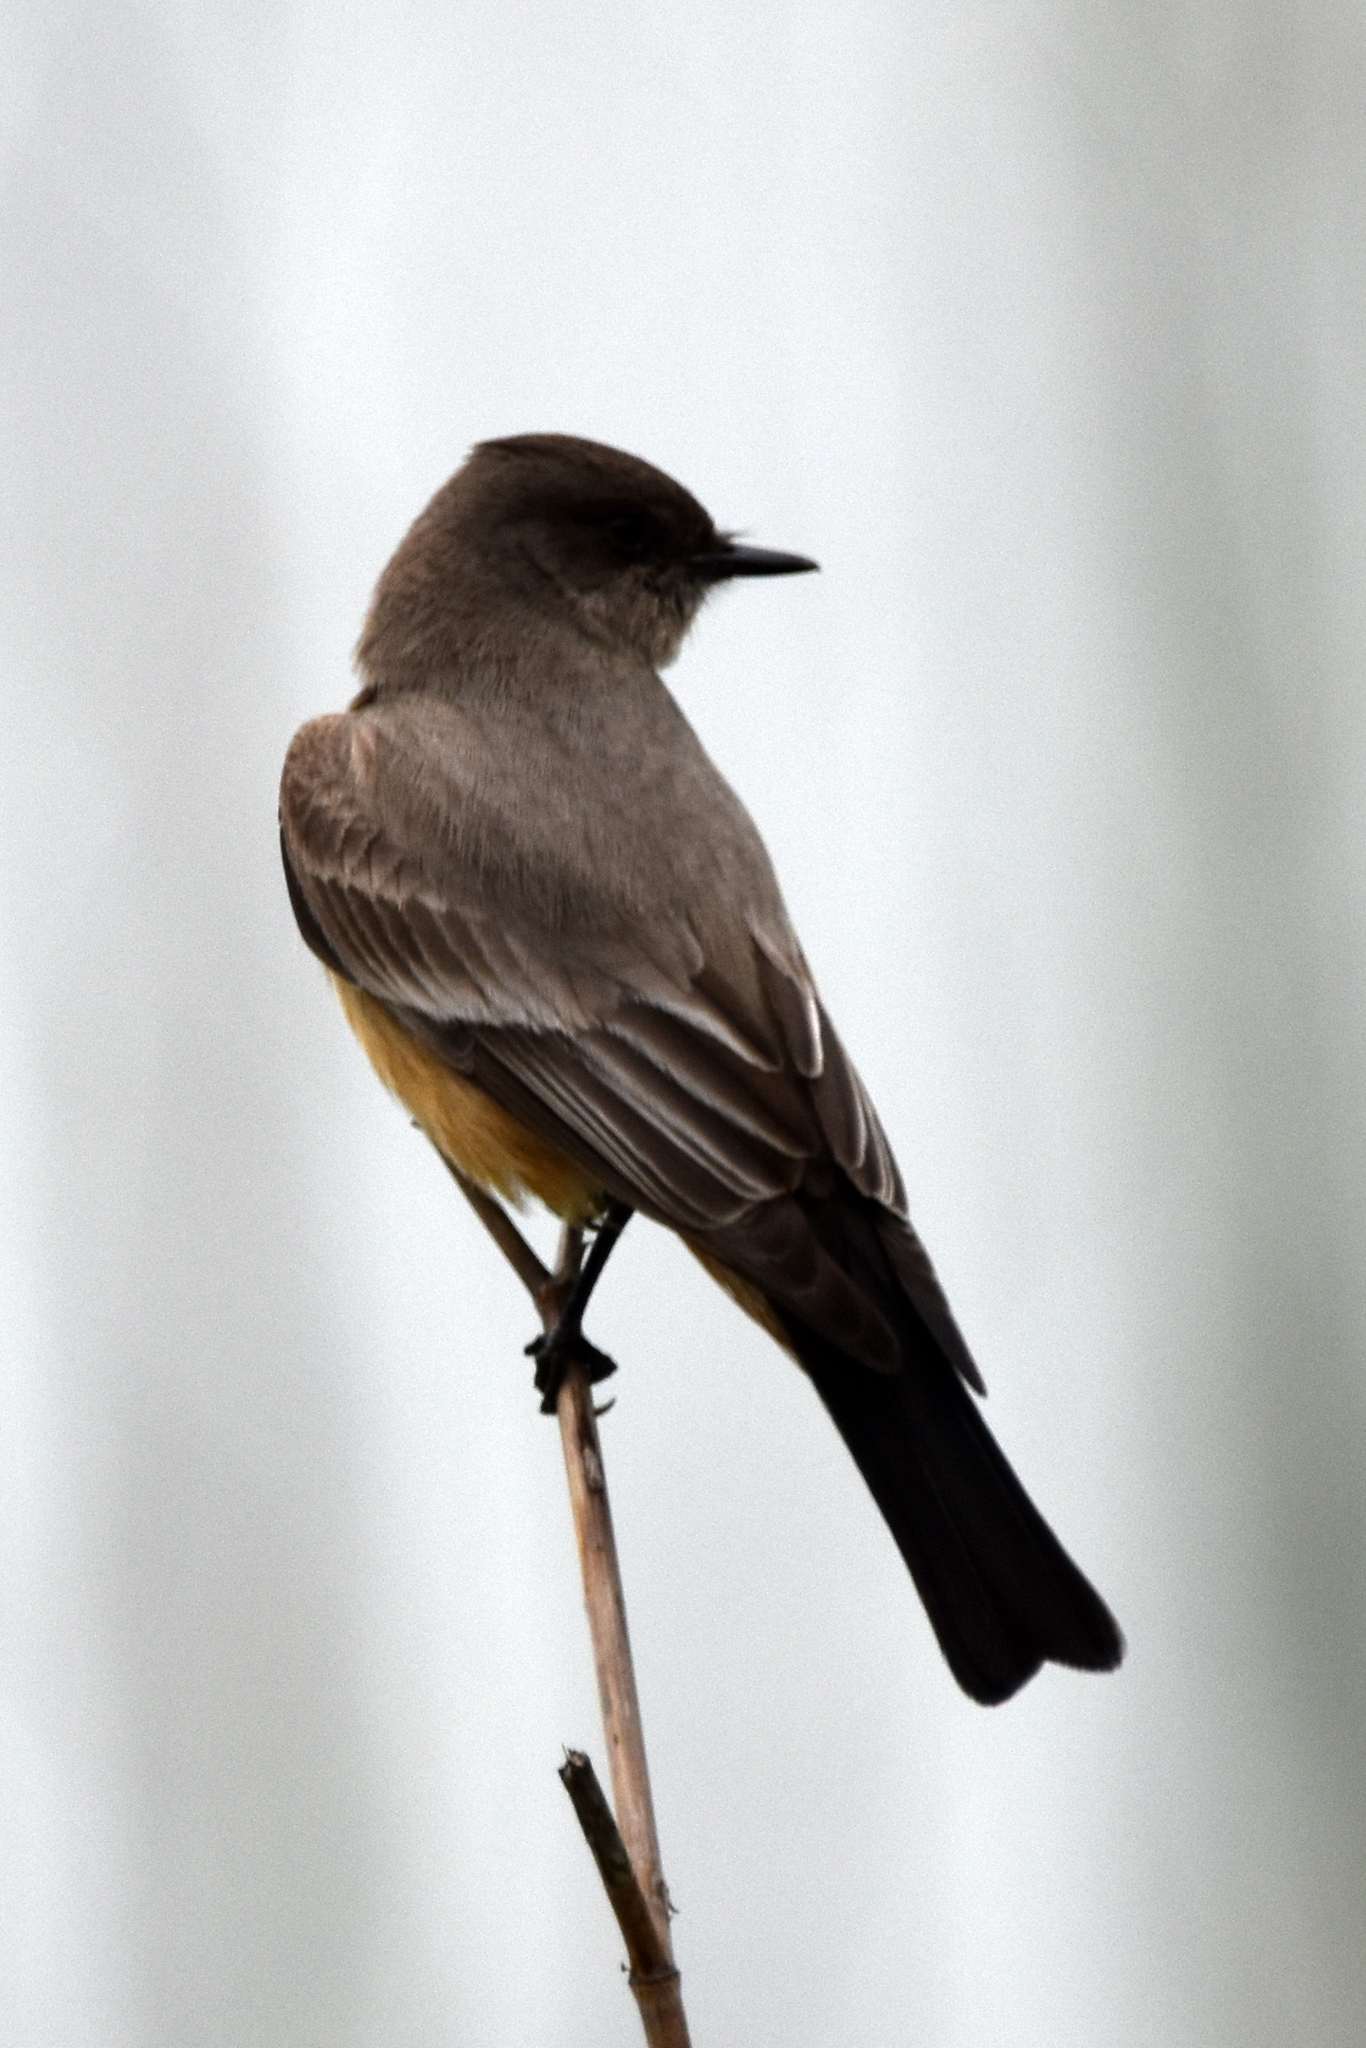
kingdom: Animalia
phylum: Chordata
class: Aves
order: Passeriformes
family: Tyrannidae
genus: Sayornis
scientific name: Sayornis saya
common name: Say's phoebe
